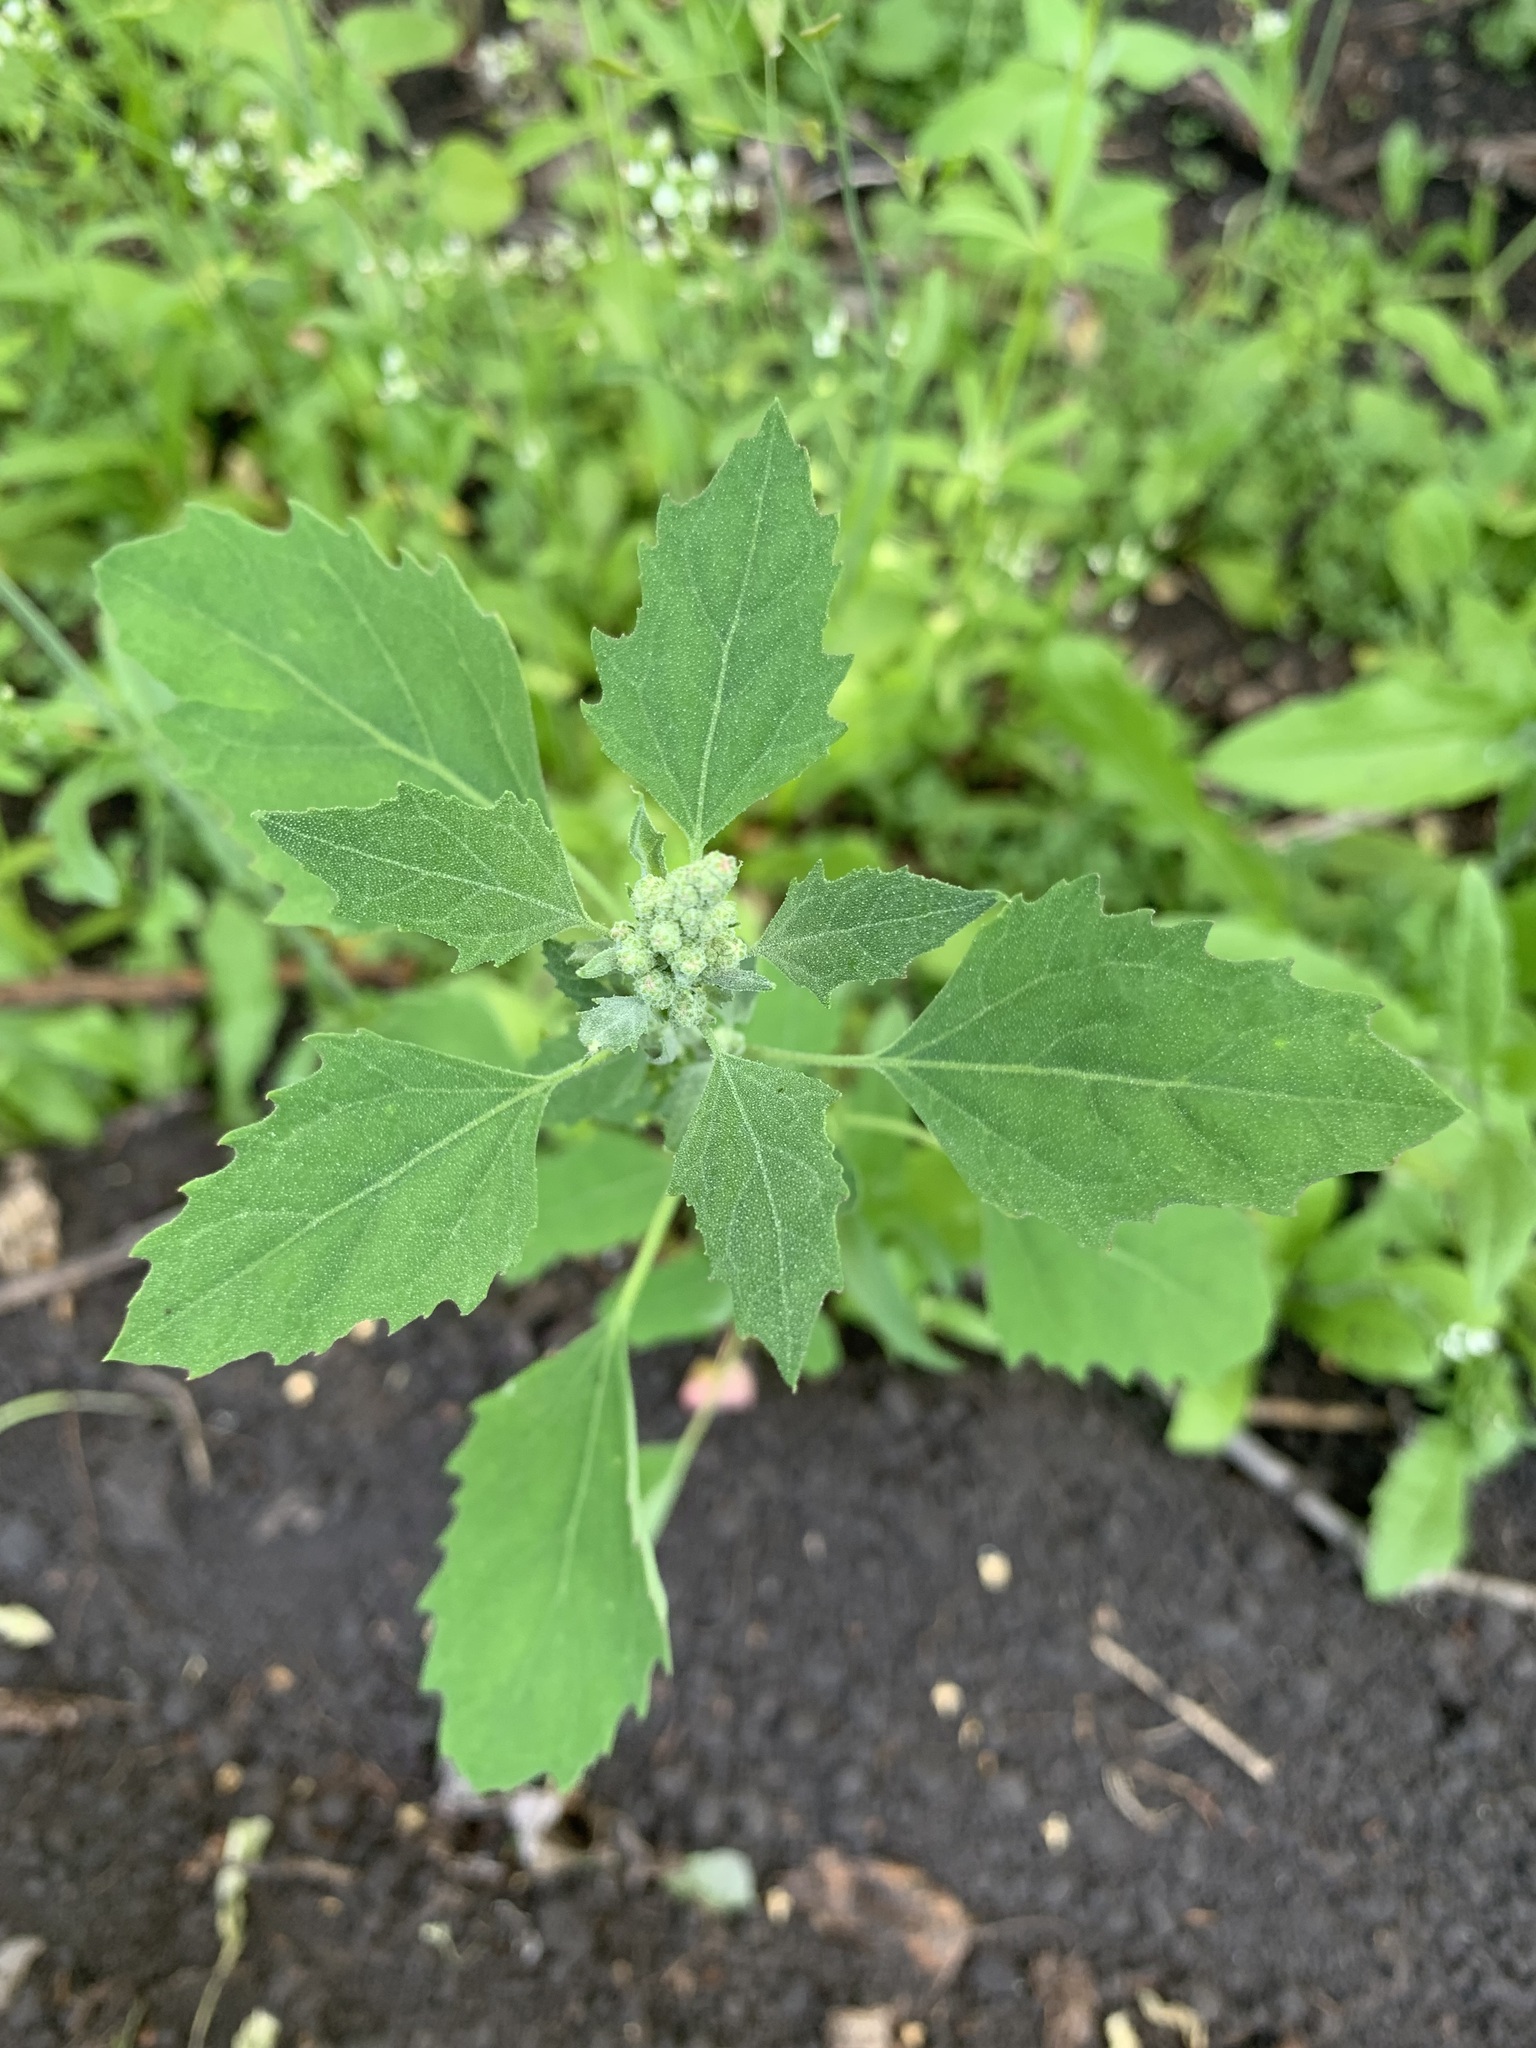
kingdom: Plantae
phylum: Tracheophyta
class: Magnoliopsida
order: Caryophyllales
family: Amaranthaceae
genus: Chenopodium
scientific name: Chenopodium album
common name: Fat-hen
